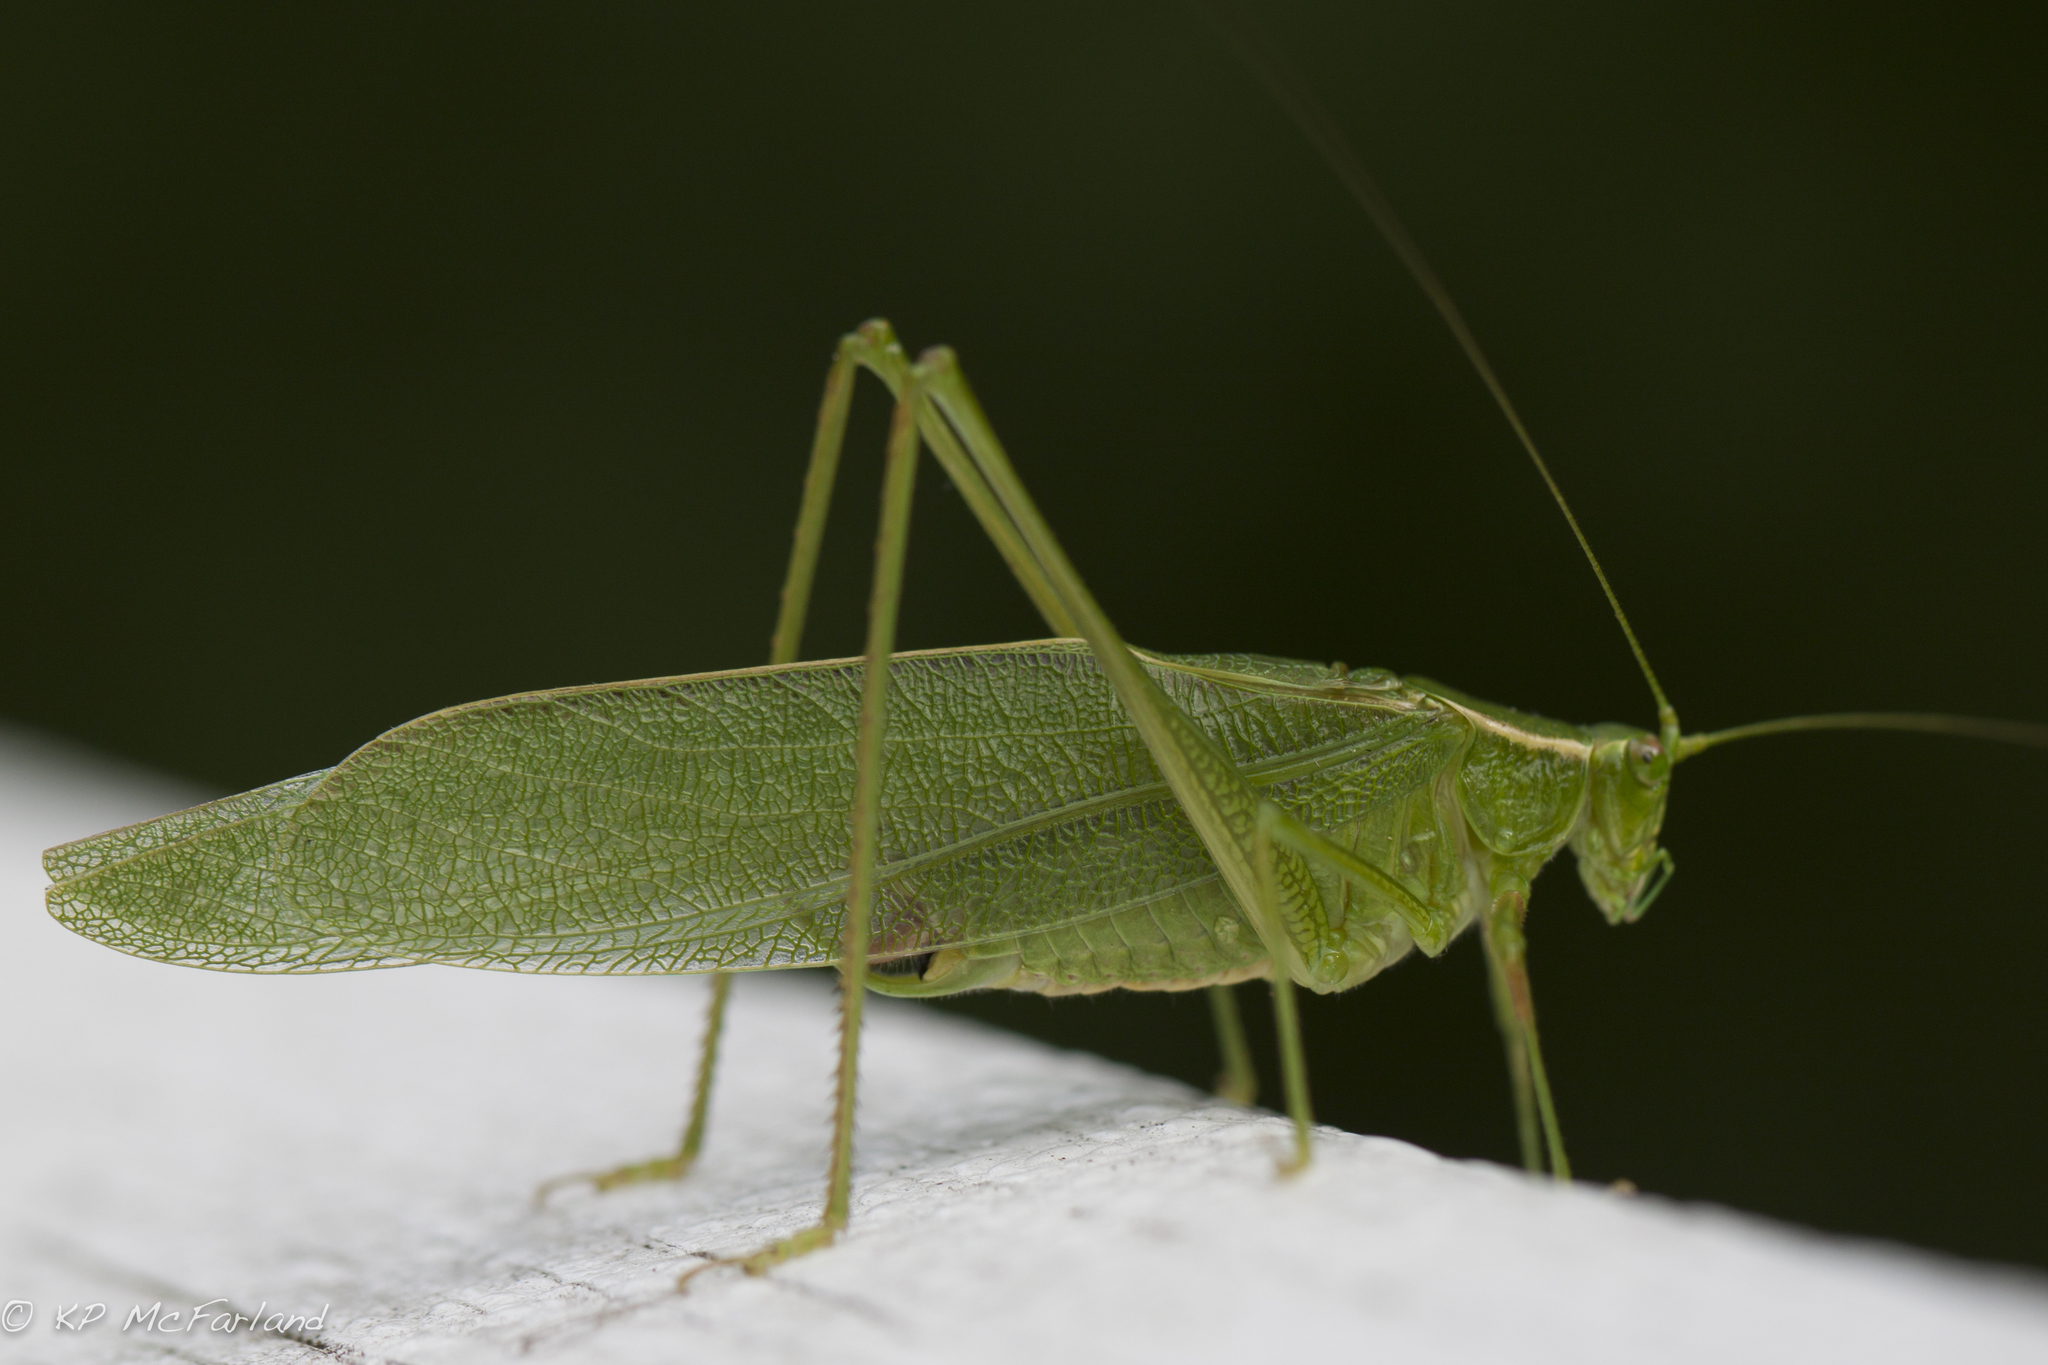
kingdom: Animalia
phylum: Arthropoda
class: Insecta
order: Orthoptera
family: Tettigoniidae
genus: Scudderia
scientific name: Scudderia
